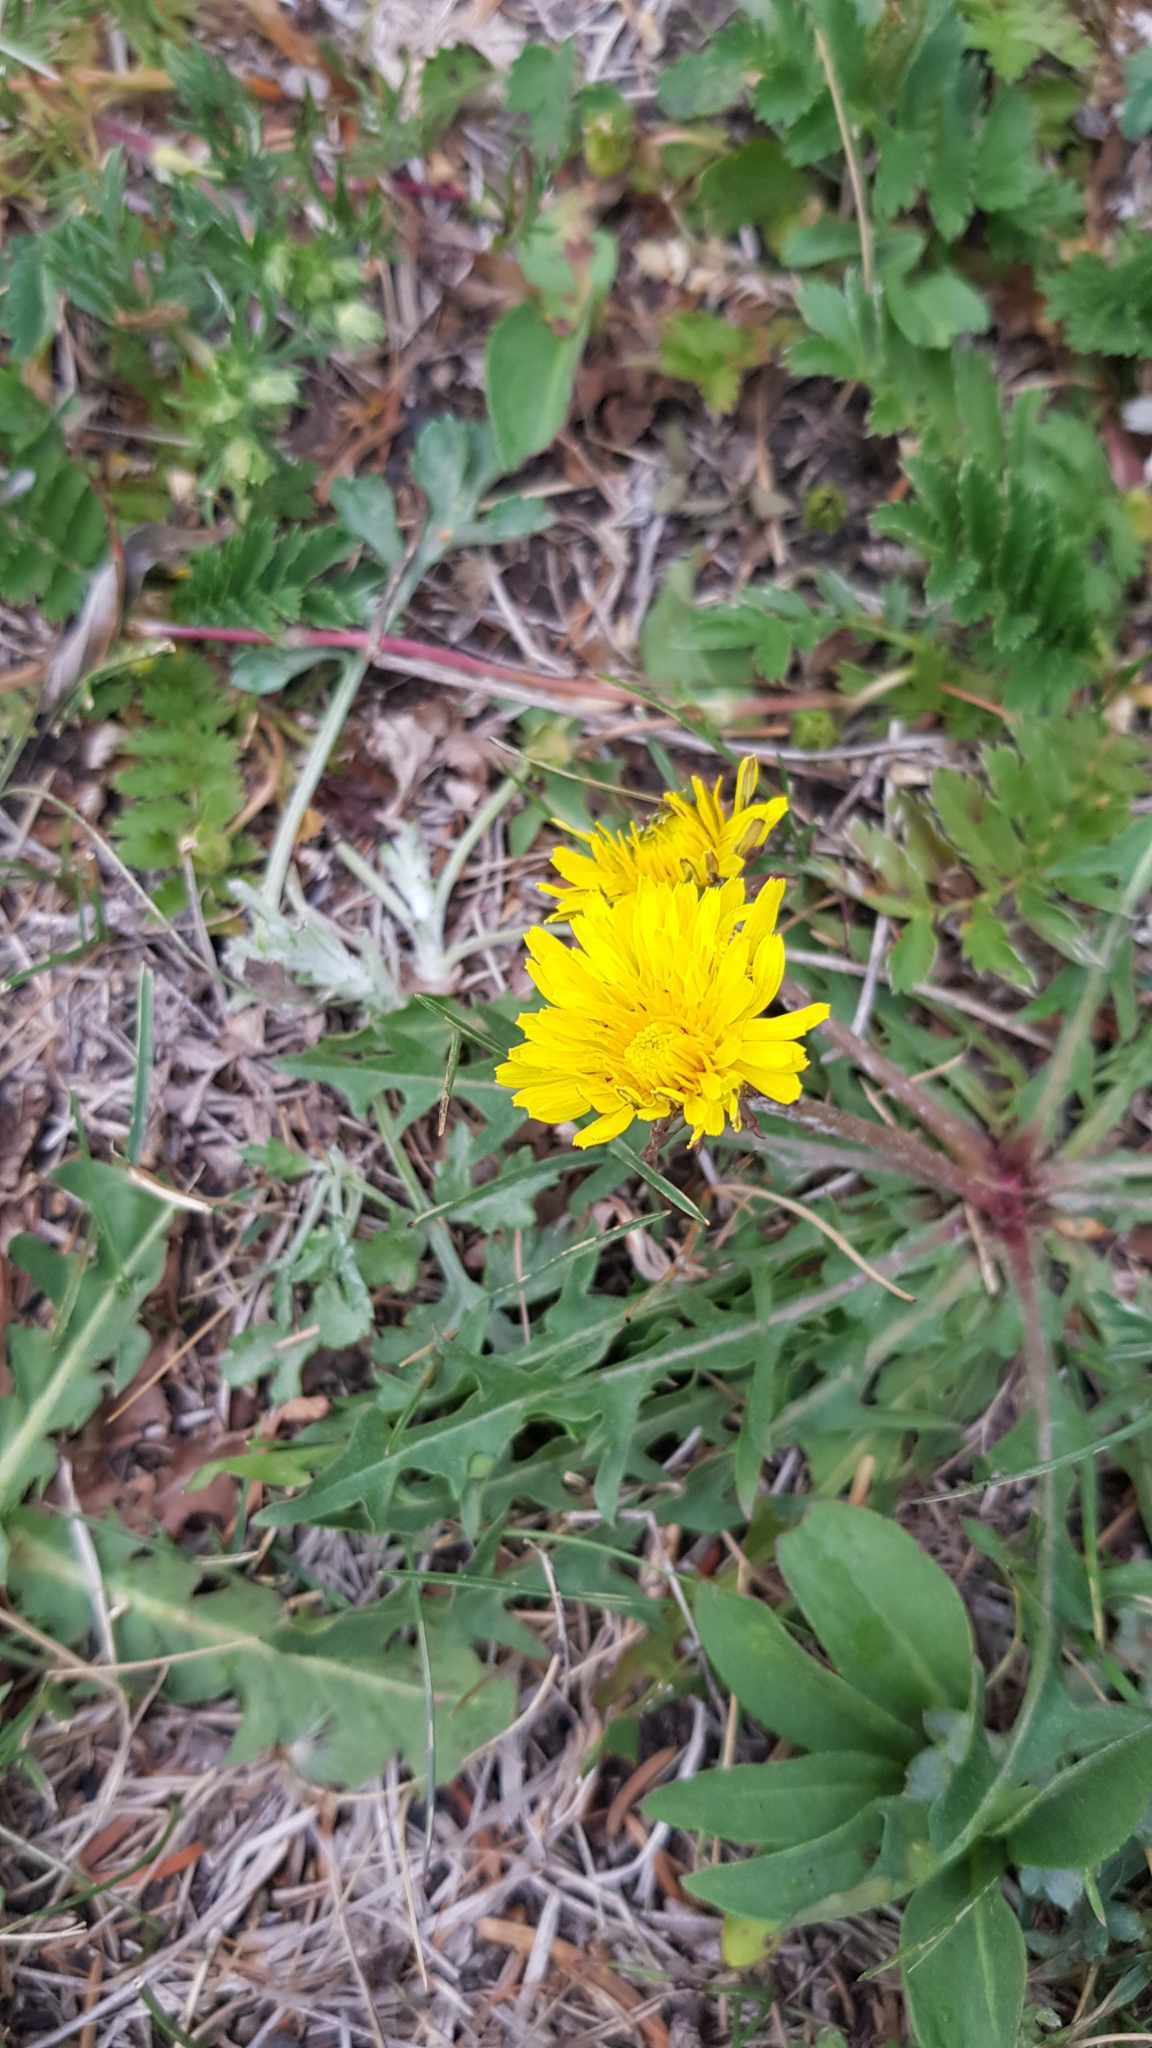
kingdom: Plantae
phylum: Tracheophyta
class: Magnoliopsida
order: Asterales
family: Asteraceae
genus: Taraxacum
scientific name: Taraxacum mongolicum
